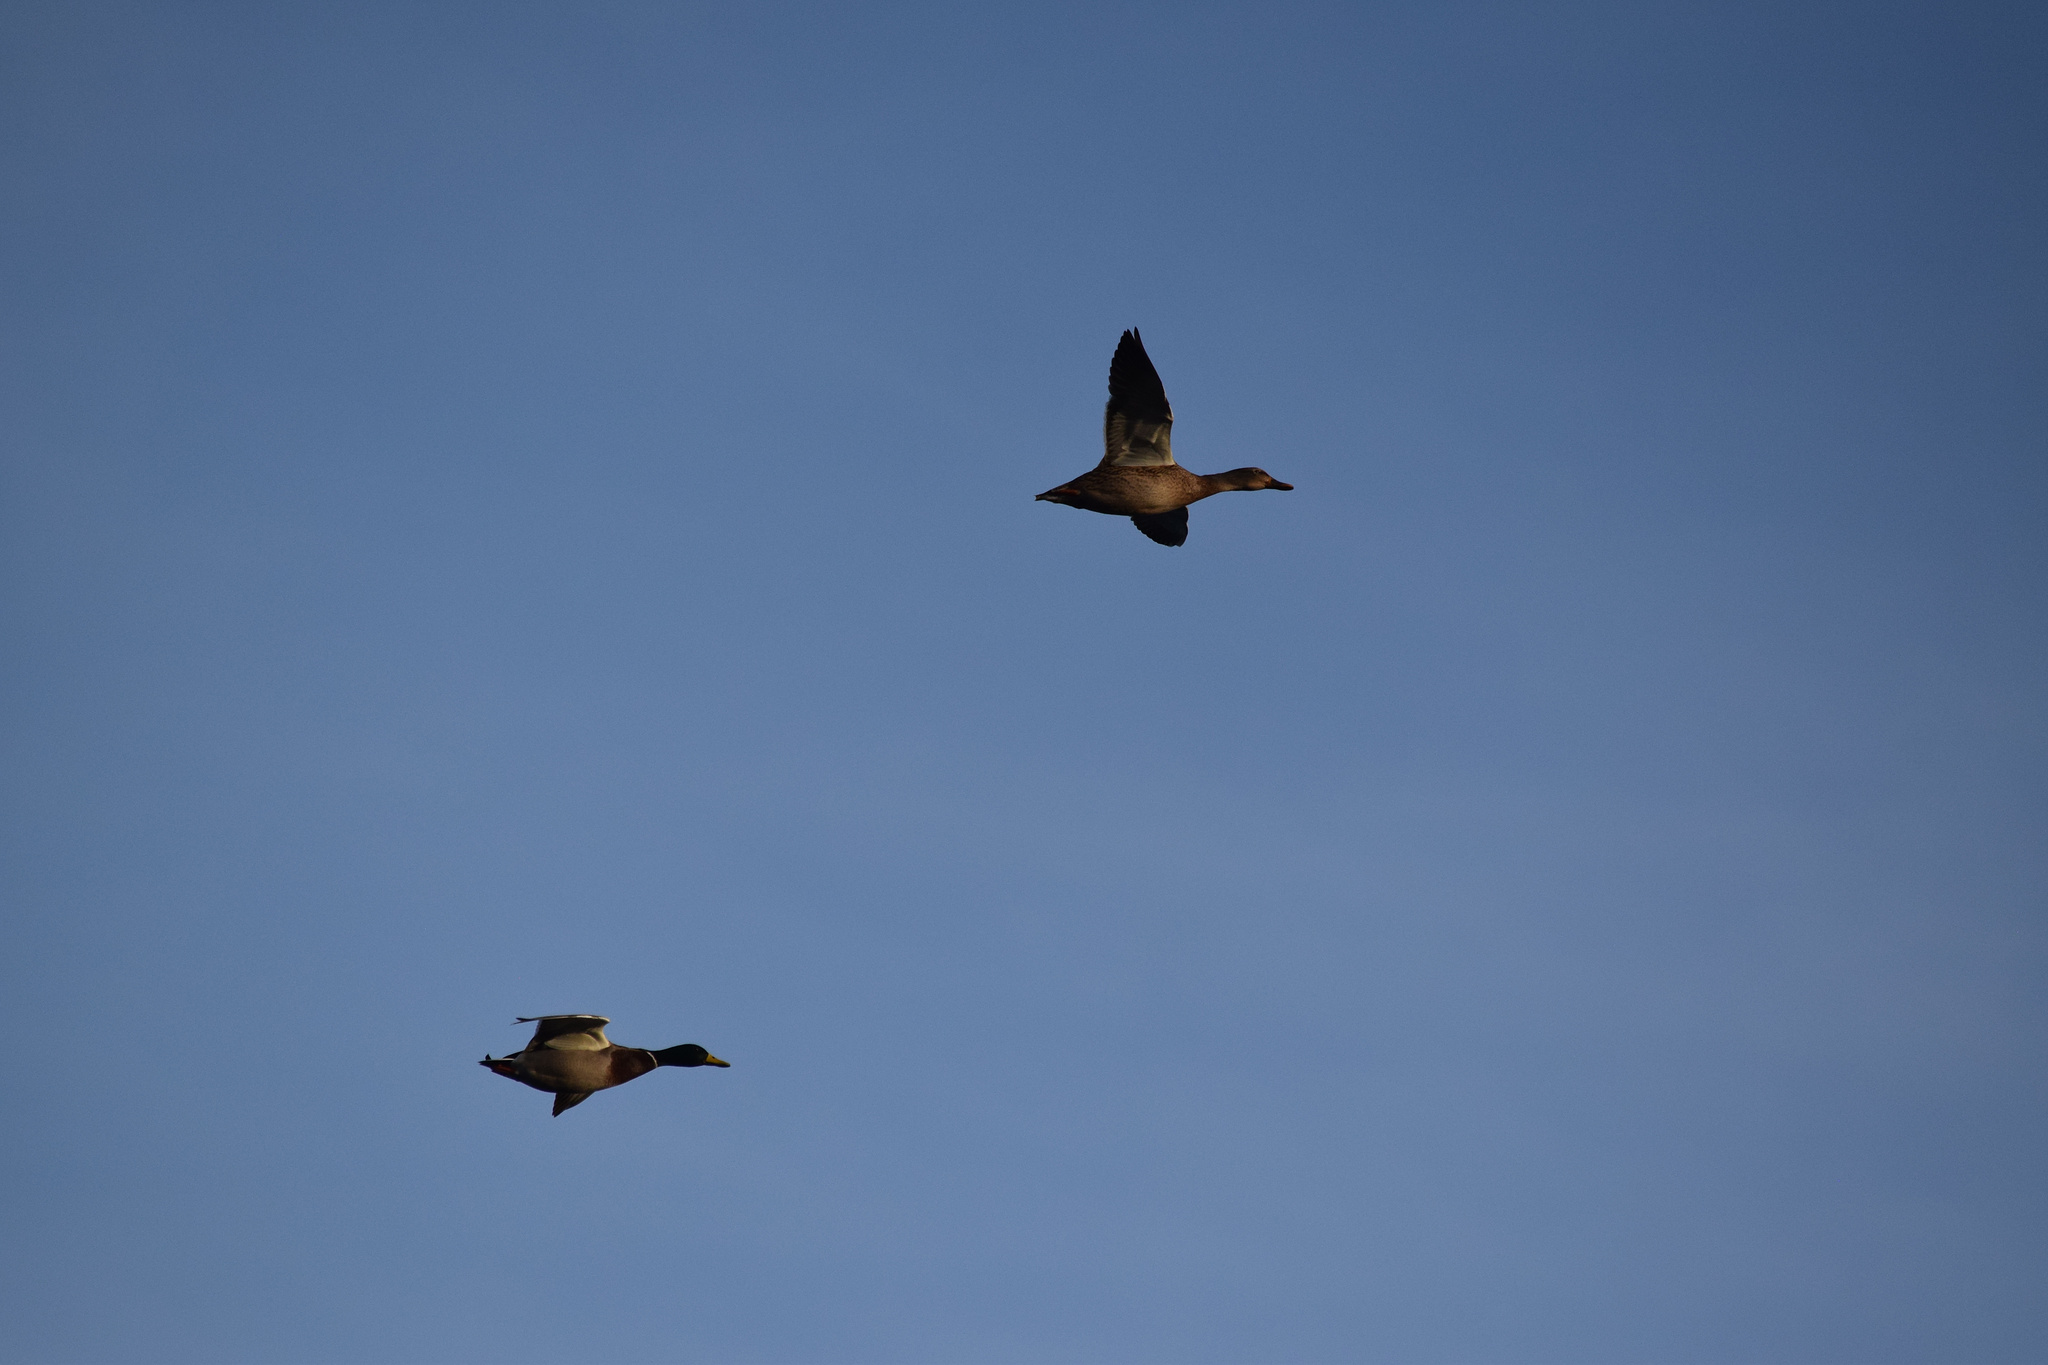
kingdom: Animalia
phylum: Chordata
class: Aves
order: Anseriformes
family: Anatidae
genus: Anas
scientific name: Anas platyrhynchos
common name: Mallard
